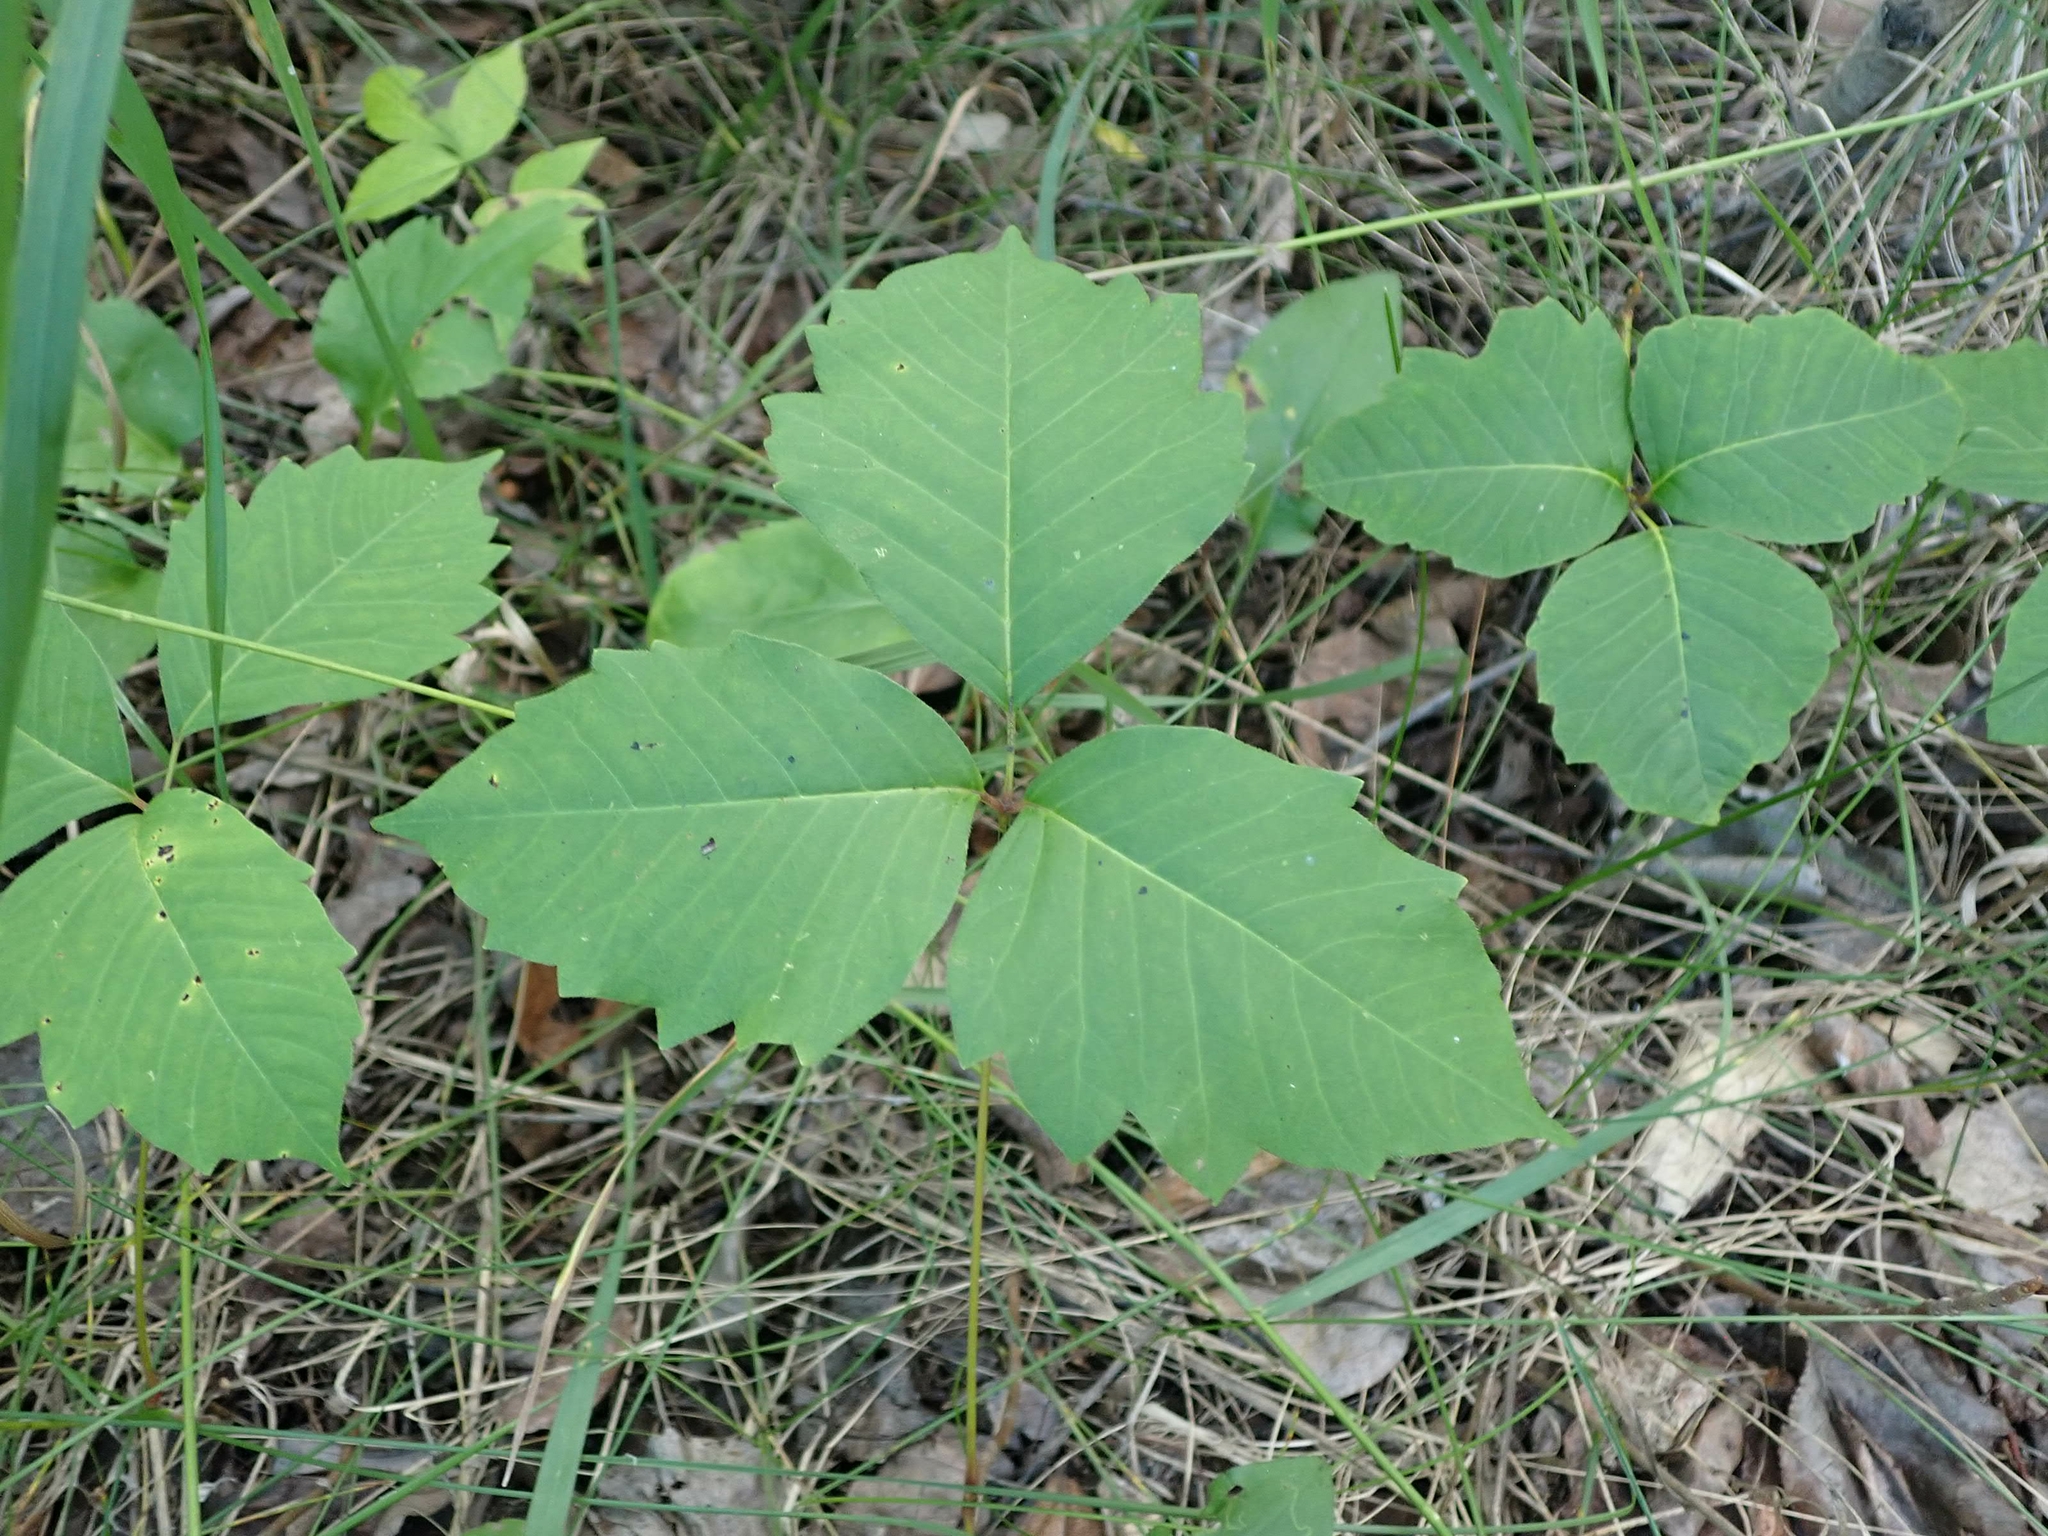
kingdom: Plantae
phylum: Tracheophyta
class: Magnoliopsida
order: Sapindales
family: Anacardiaceae
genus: Toxicodendron
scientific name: Toxicodendron rydbergii
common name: Rydberg's poison-ivy
